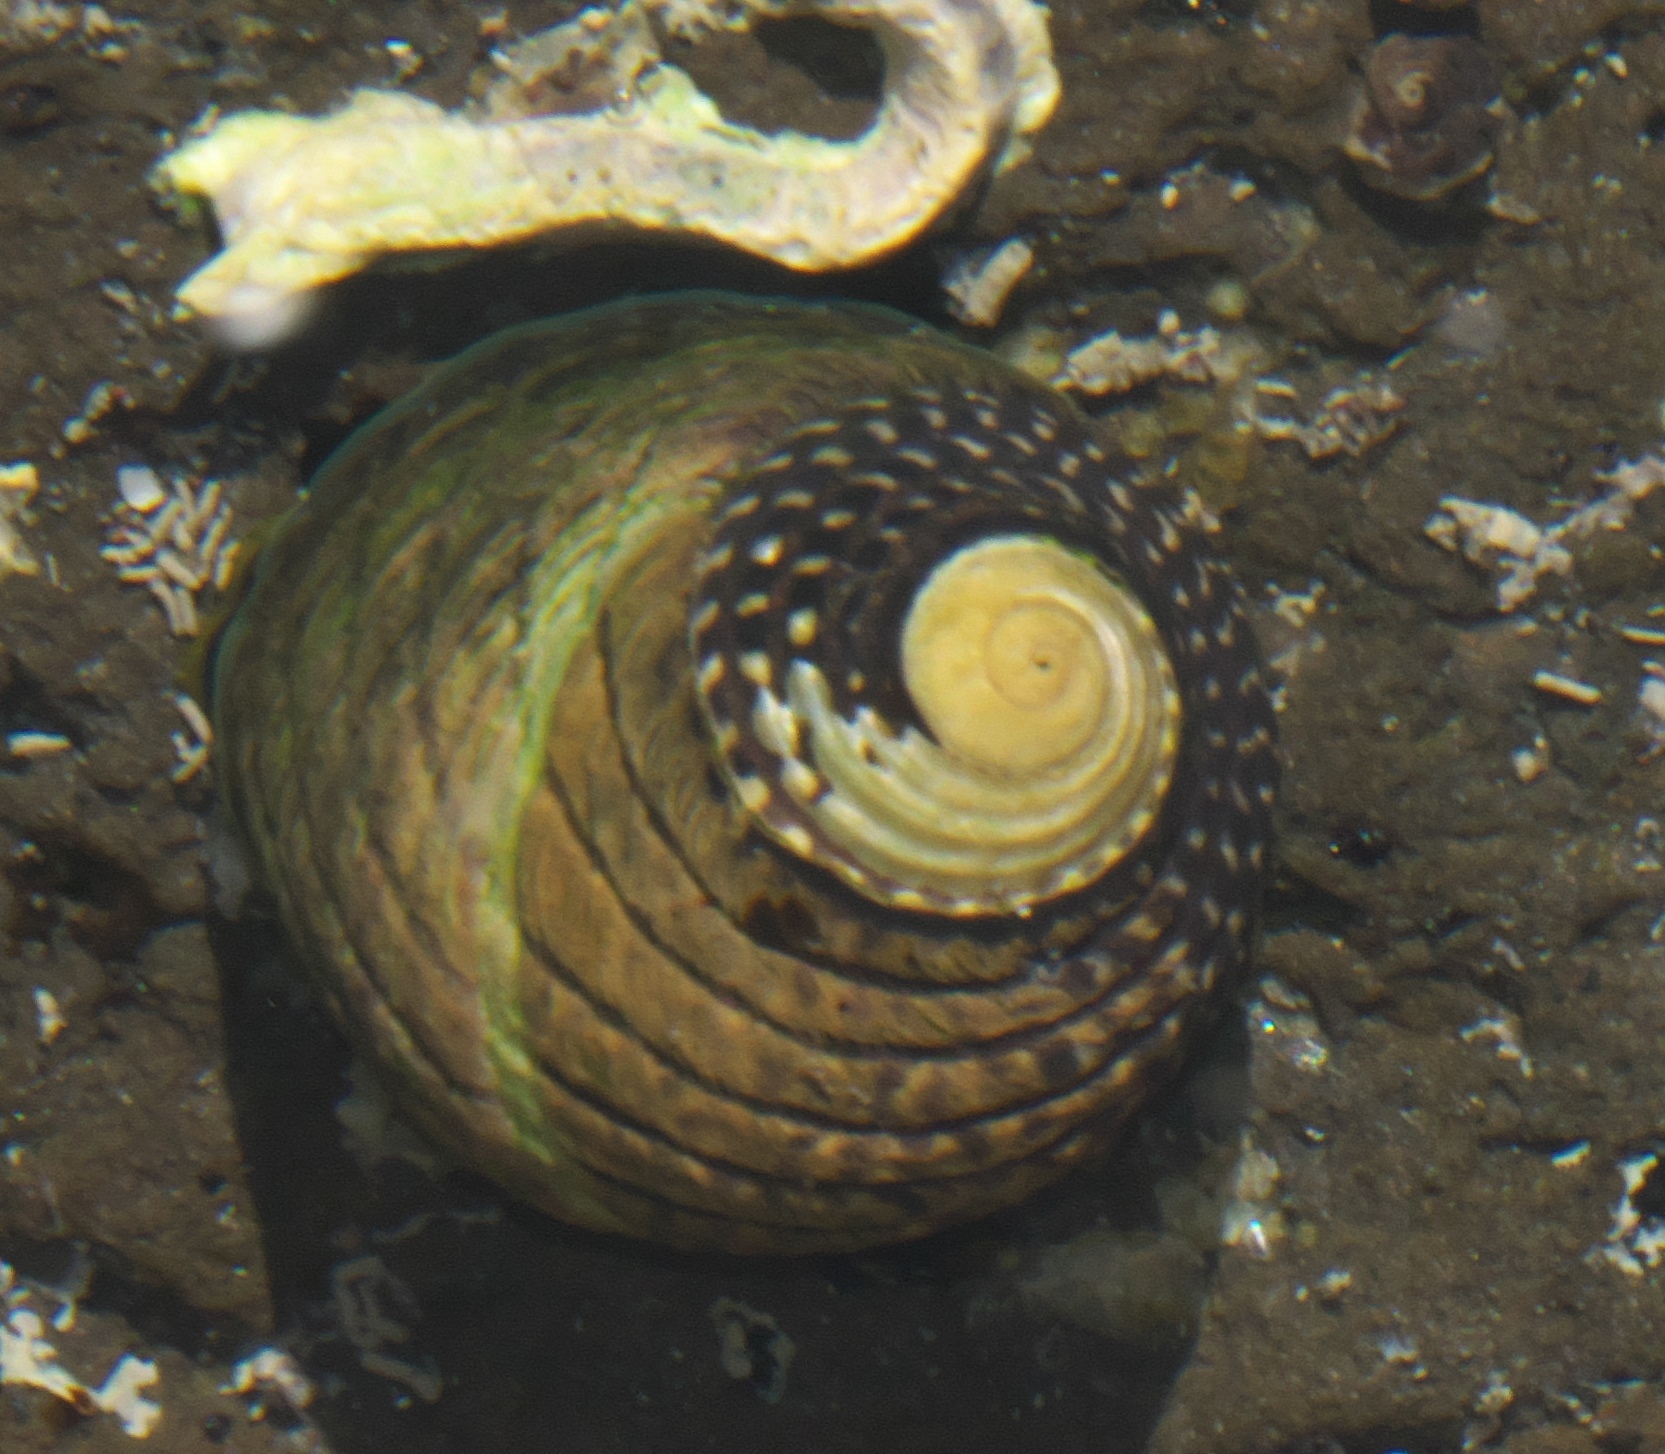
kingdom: Animalia
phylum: Mollusca
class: Gastropoda
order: Trochida
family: Trochidae
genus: Diloma
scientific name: Diloma aethiops
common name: Scorched monodont
